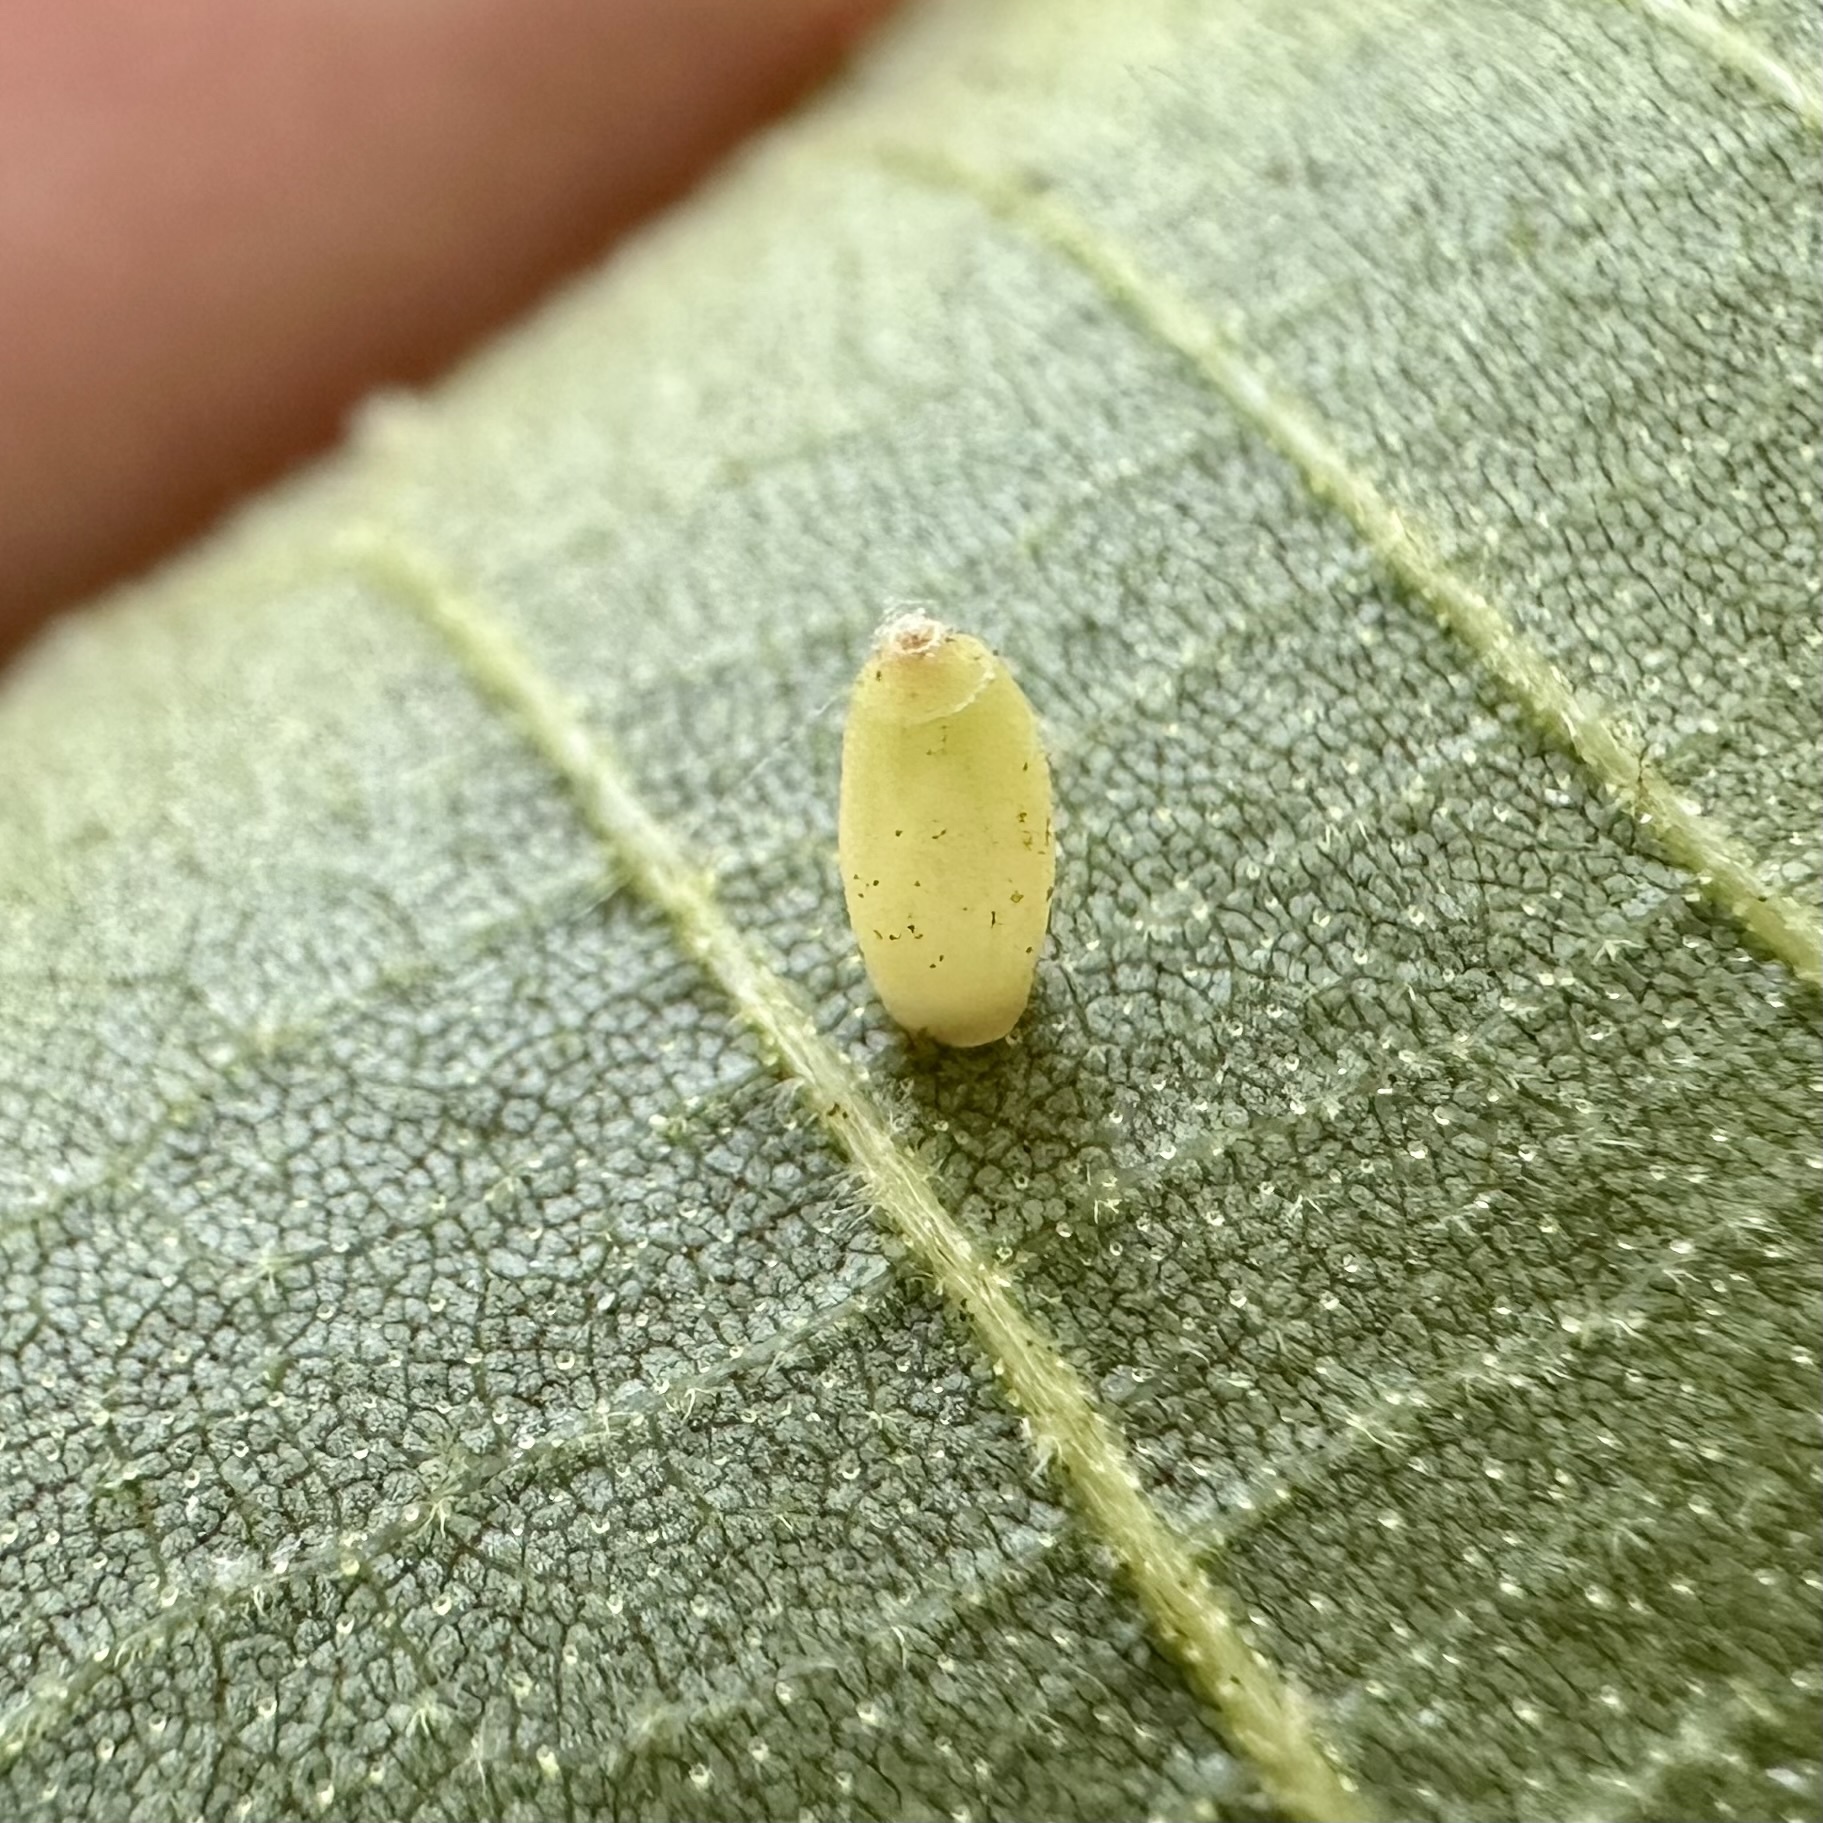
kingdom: Animalia
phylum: Arthropoda
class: Insecta
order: Diptera
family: Cecidomyiidae
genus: Caryomyia
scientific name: Caryomyia urnula
